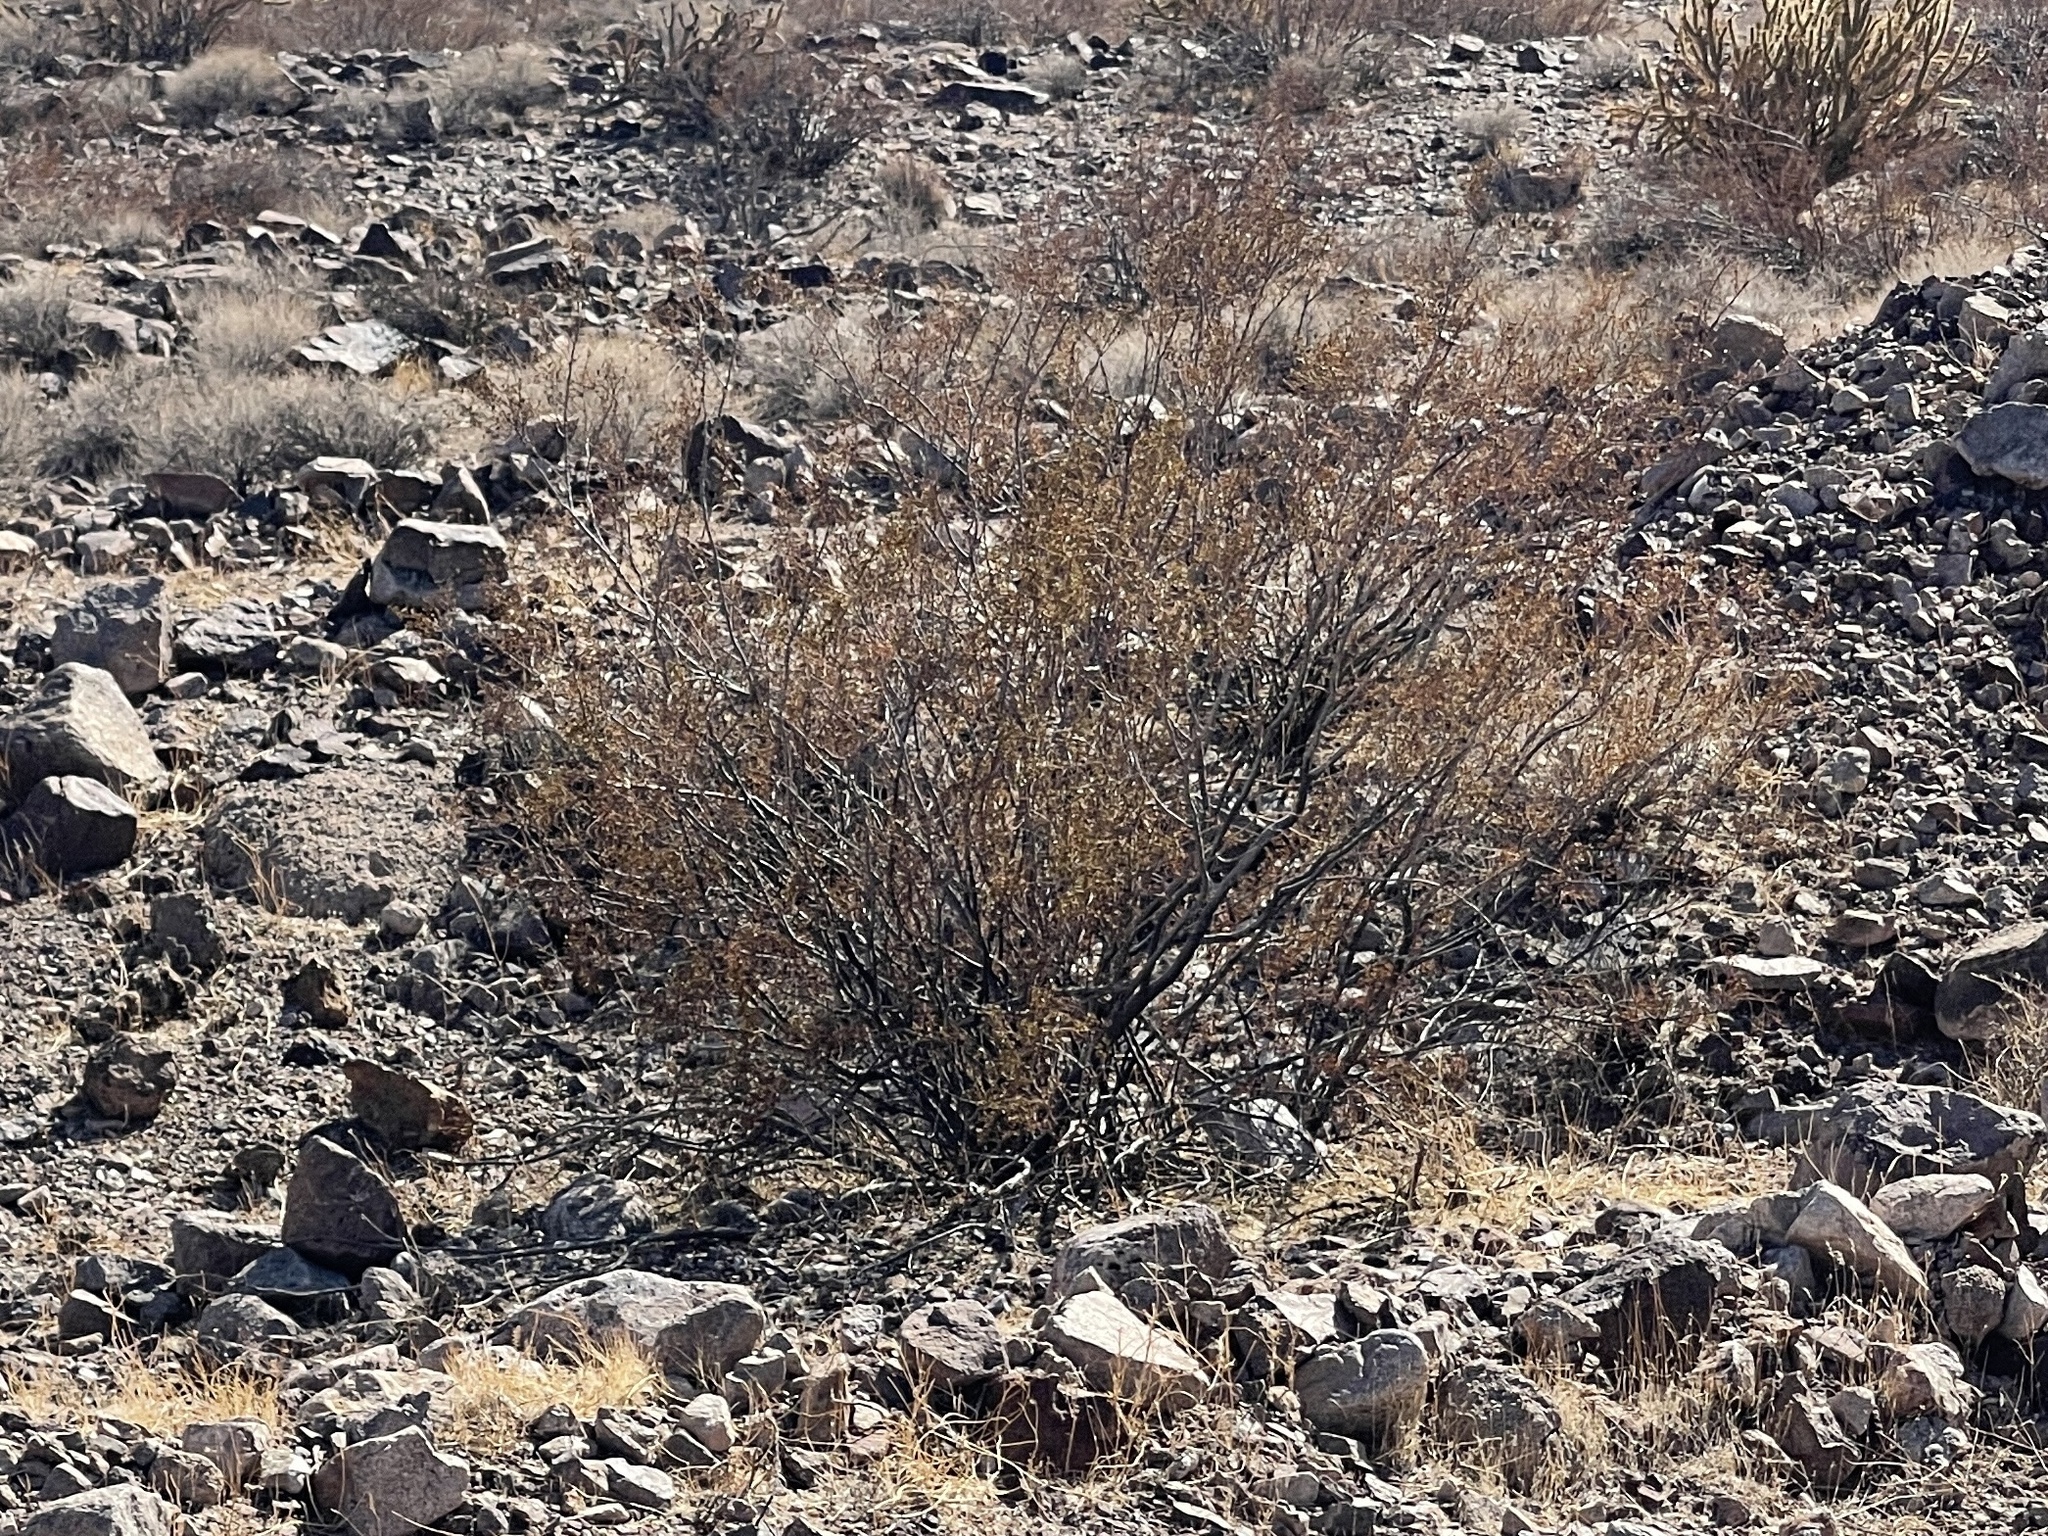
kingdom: Plantae
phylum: Tracheophyta
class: Magnoliopsida
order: Zygophyllales
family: Zygophyllaceae
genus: Larrea
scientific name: Larrea tridentata
